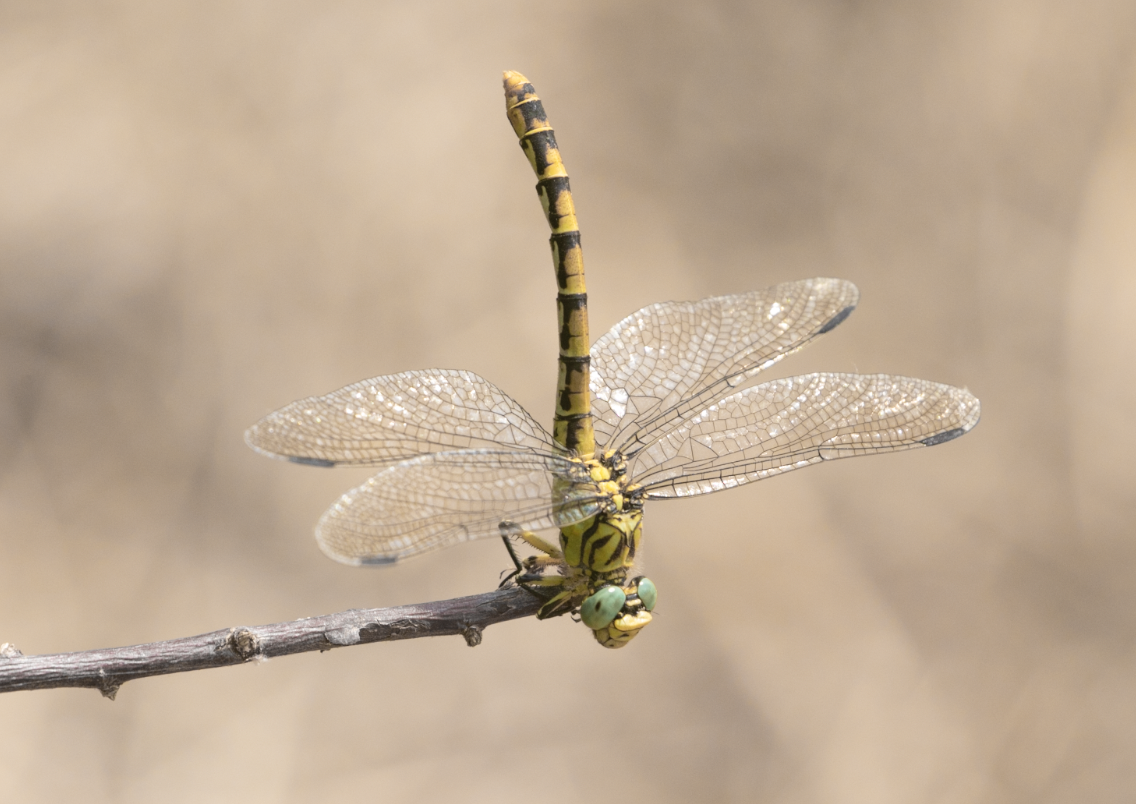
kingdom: Animalia
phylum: Arthropoda
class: Insecta
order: Odonata
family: Gomphidae
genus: Onychogomphus
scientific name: Onychogomphus forcipatus
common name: Small pincertail
